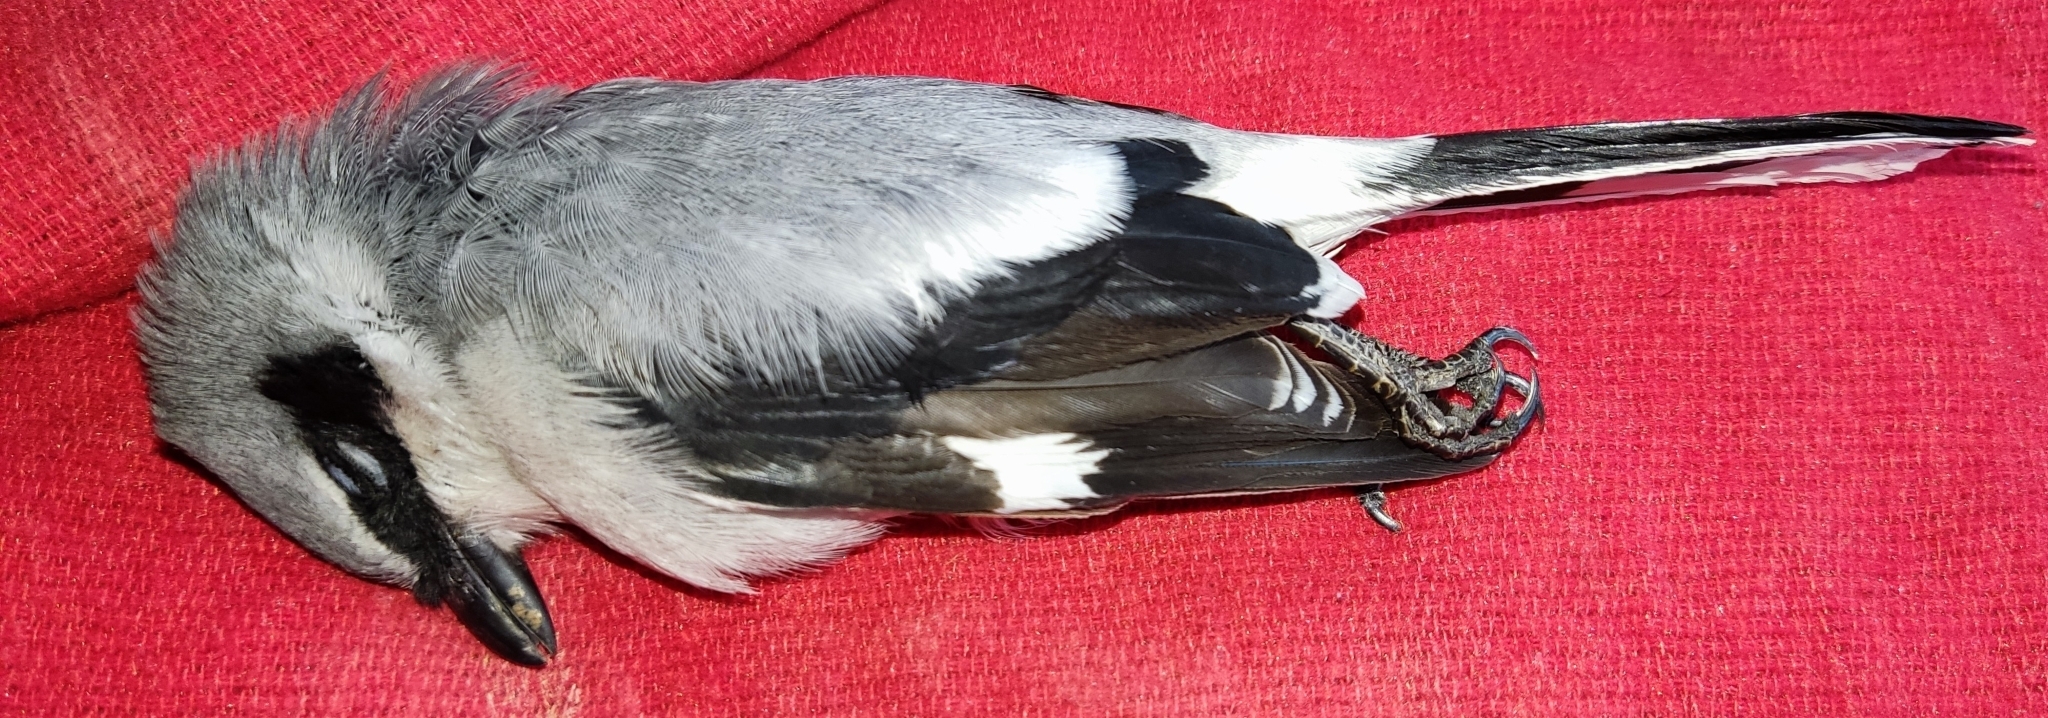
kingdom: Animalia
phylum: Chordata
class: Aves
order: Passeriformes
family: Laniidae
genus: Lanius
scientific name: Lanius ludovicianus
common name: Loggerhead shrike
